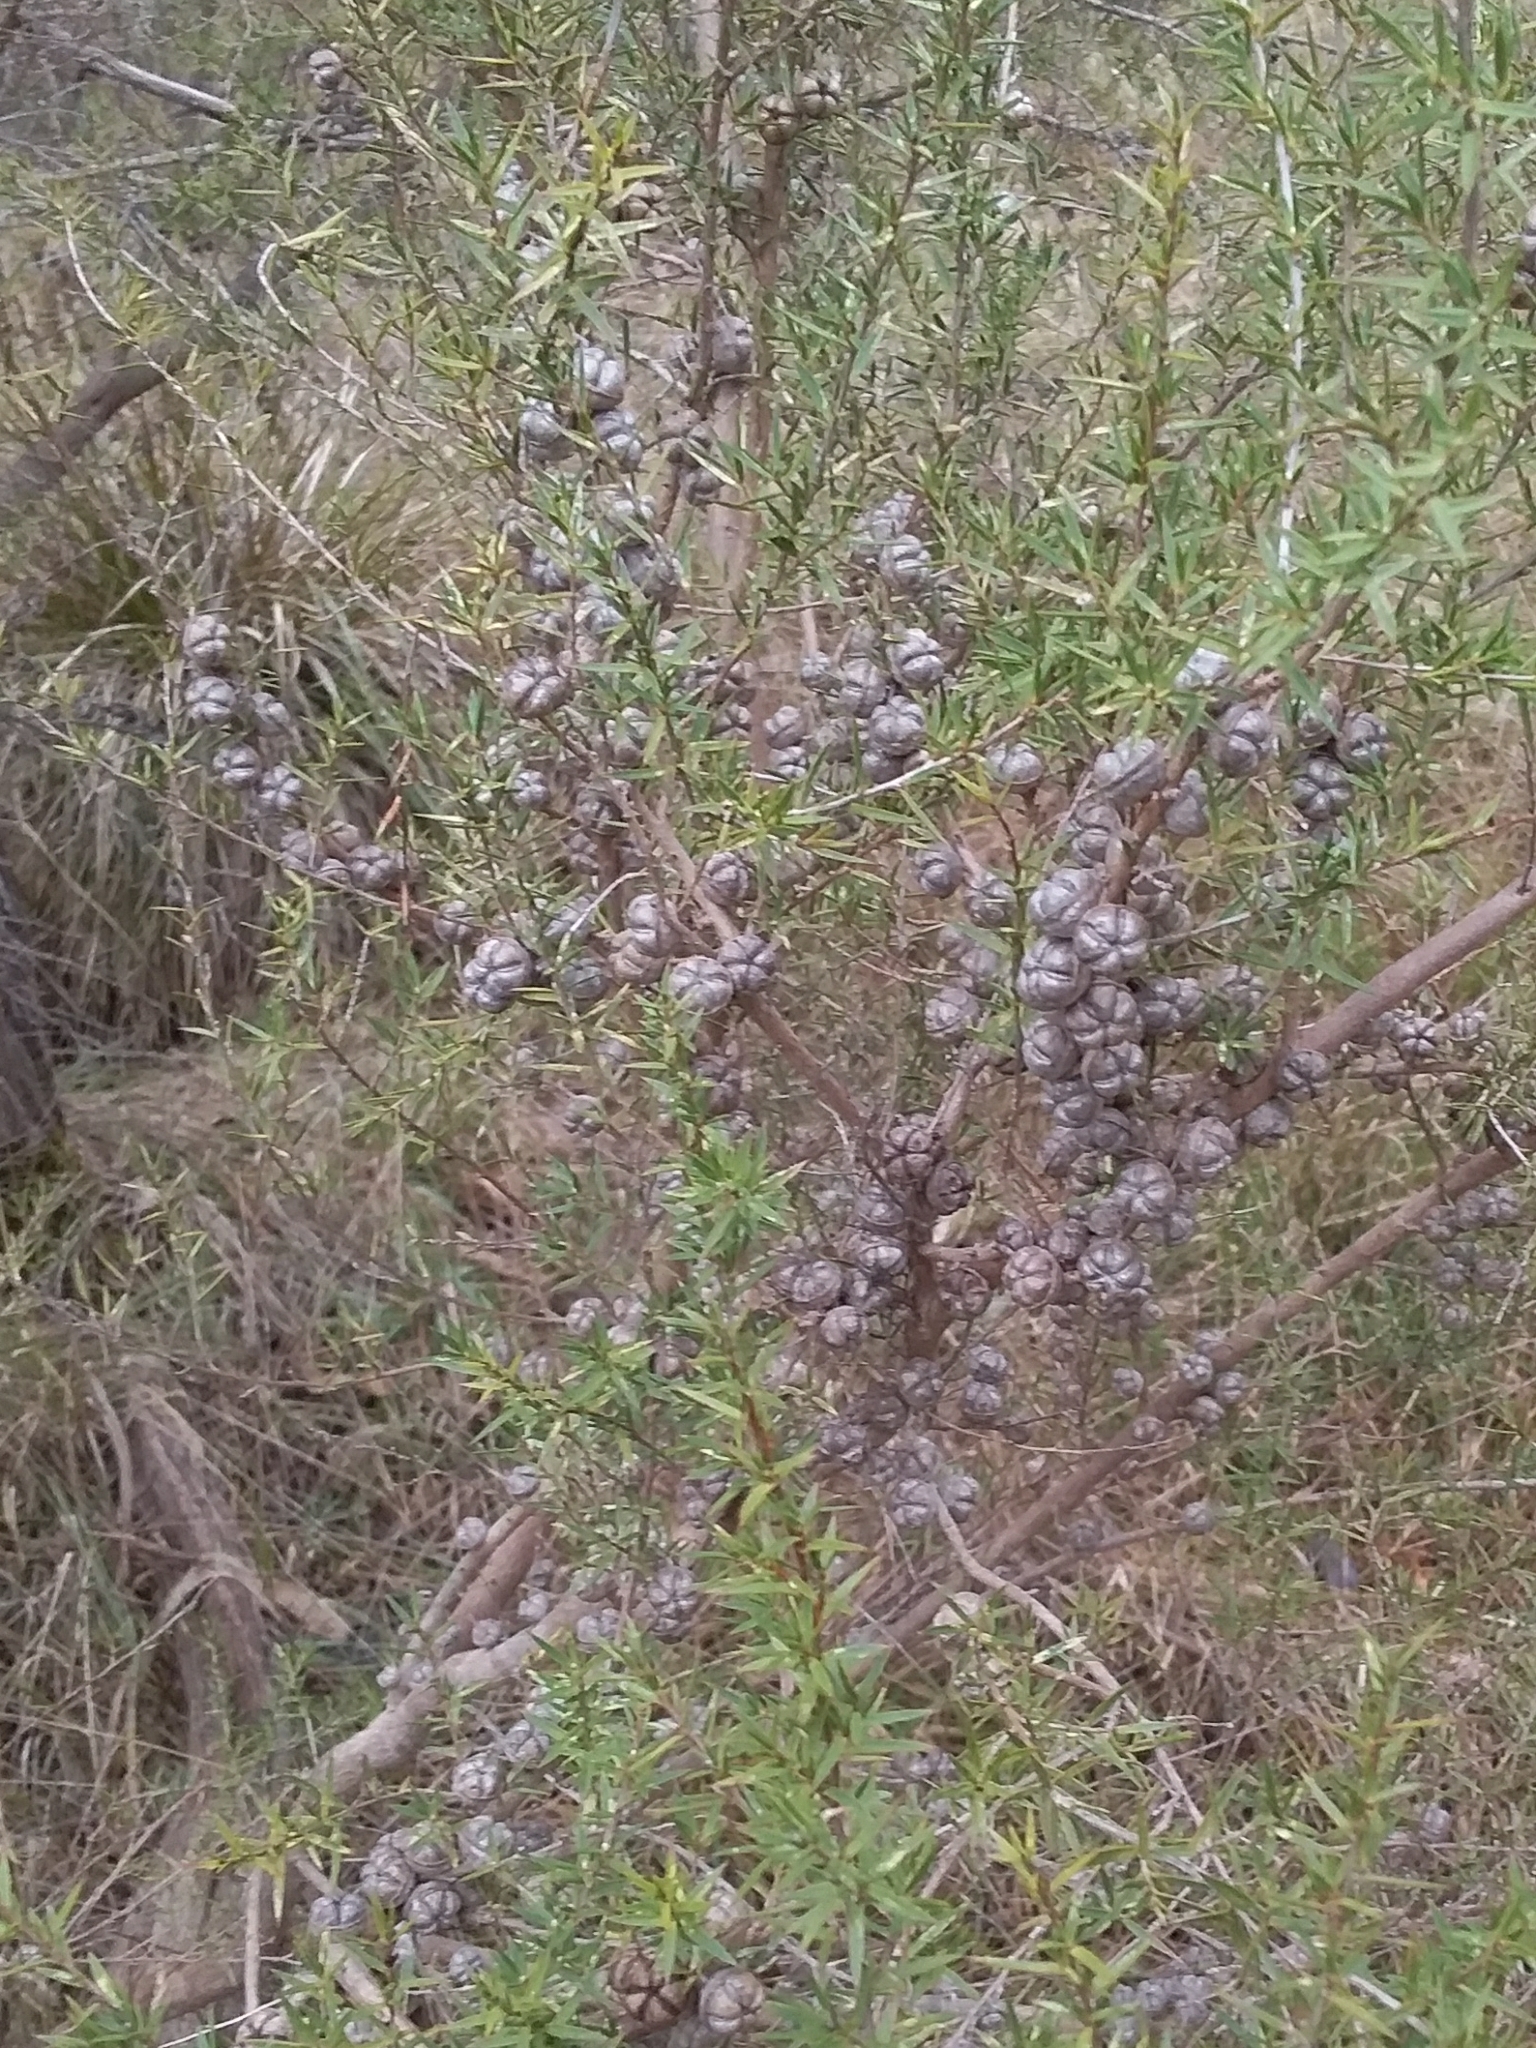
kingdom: Plantae
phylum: Tracheophyta
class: Magnoliopsida
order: Myrtales
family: Myrtaceae
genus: Leptospermum
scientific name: Leptospermum continentale
